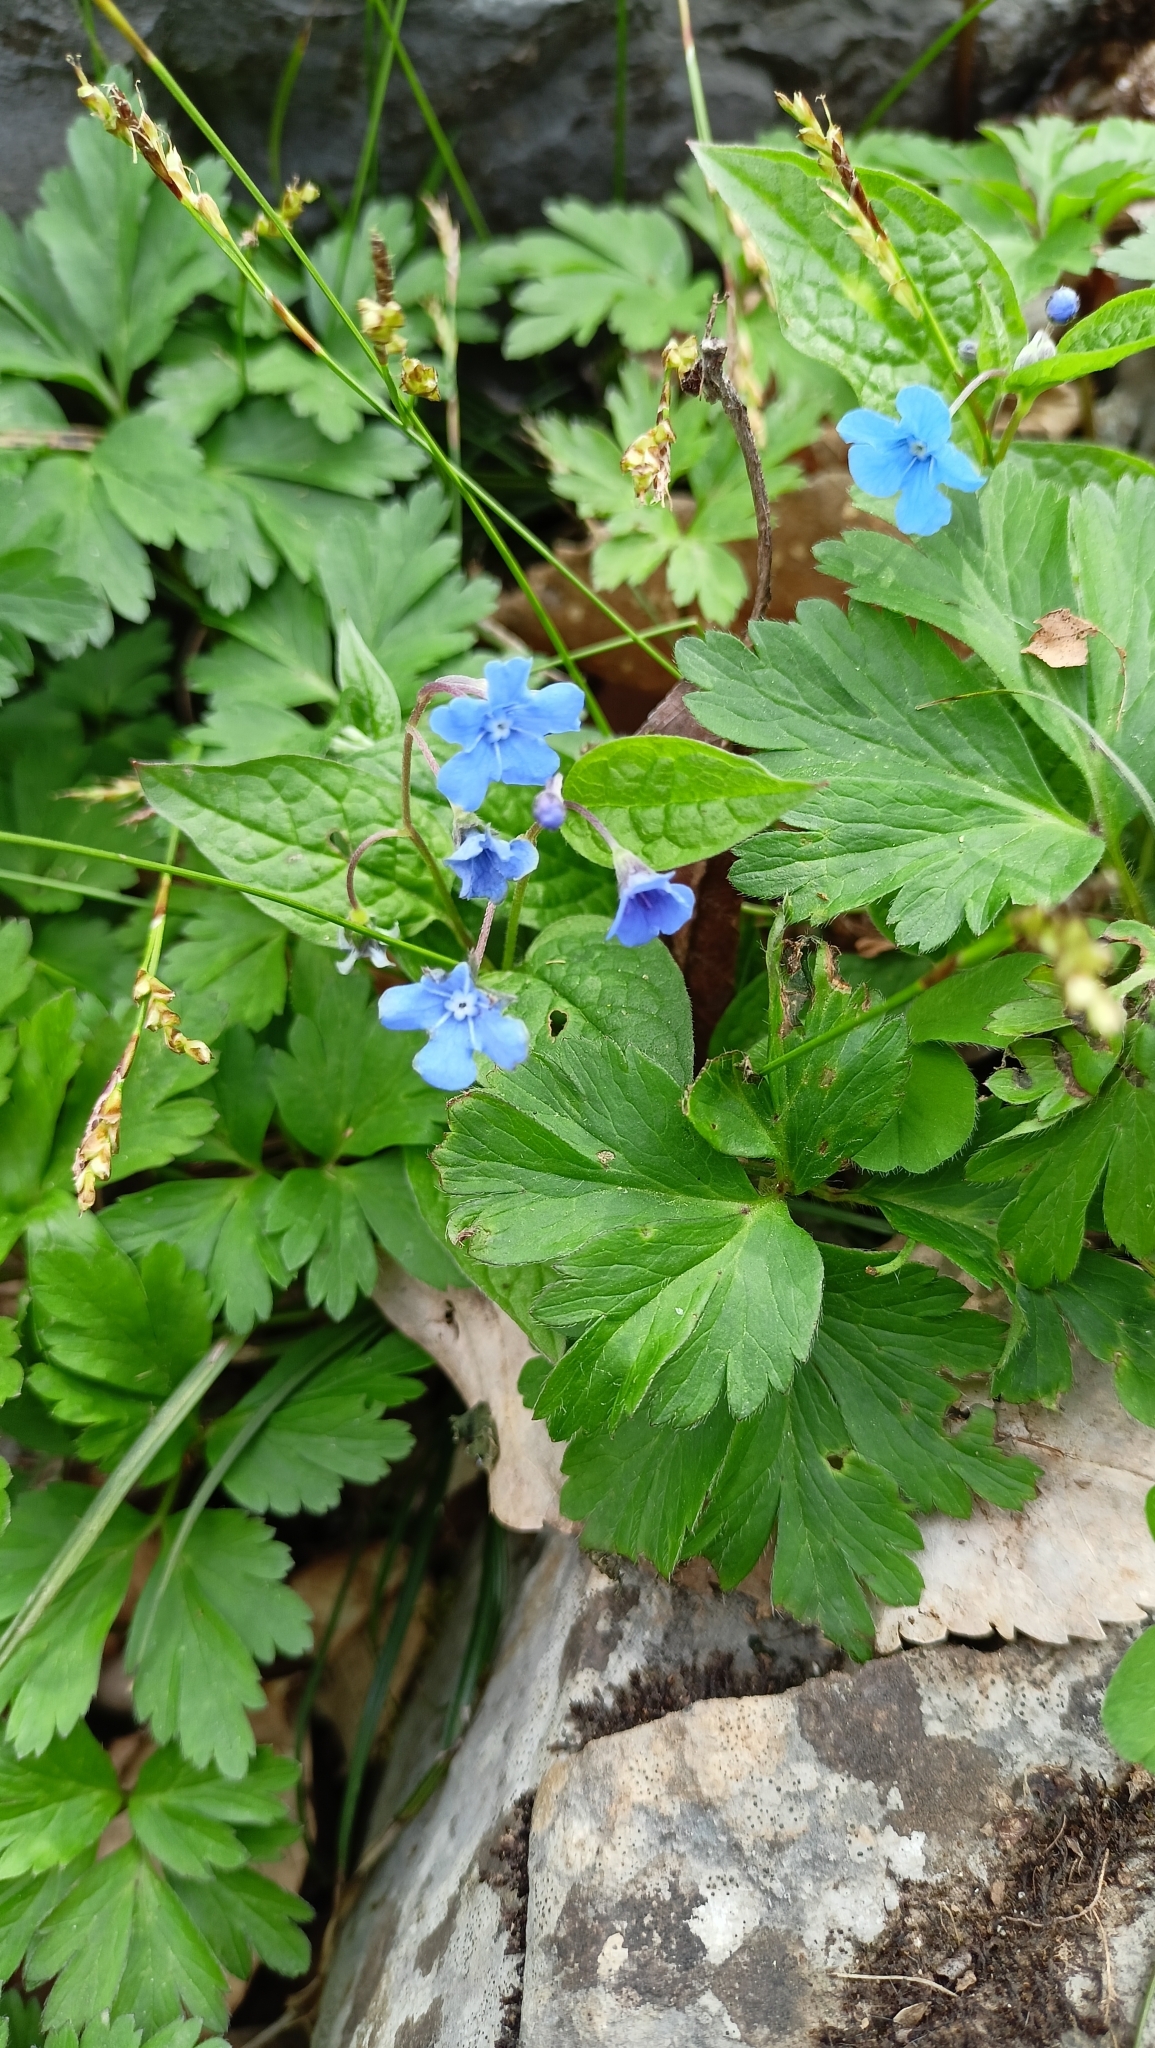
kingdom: Plantae
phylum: Tracheophyta
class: Magnoliopsida
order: Boraginales
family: Boraginaceae
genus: Omphalodes
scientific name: Omphalodes verna
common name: Blue-eyed-mary
